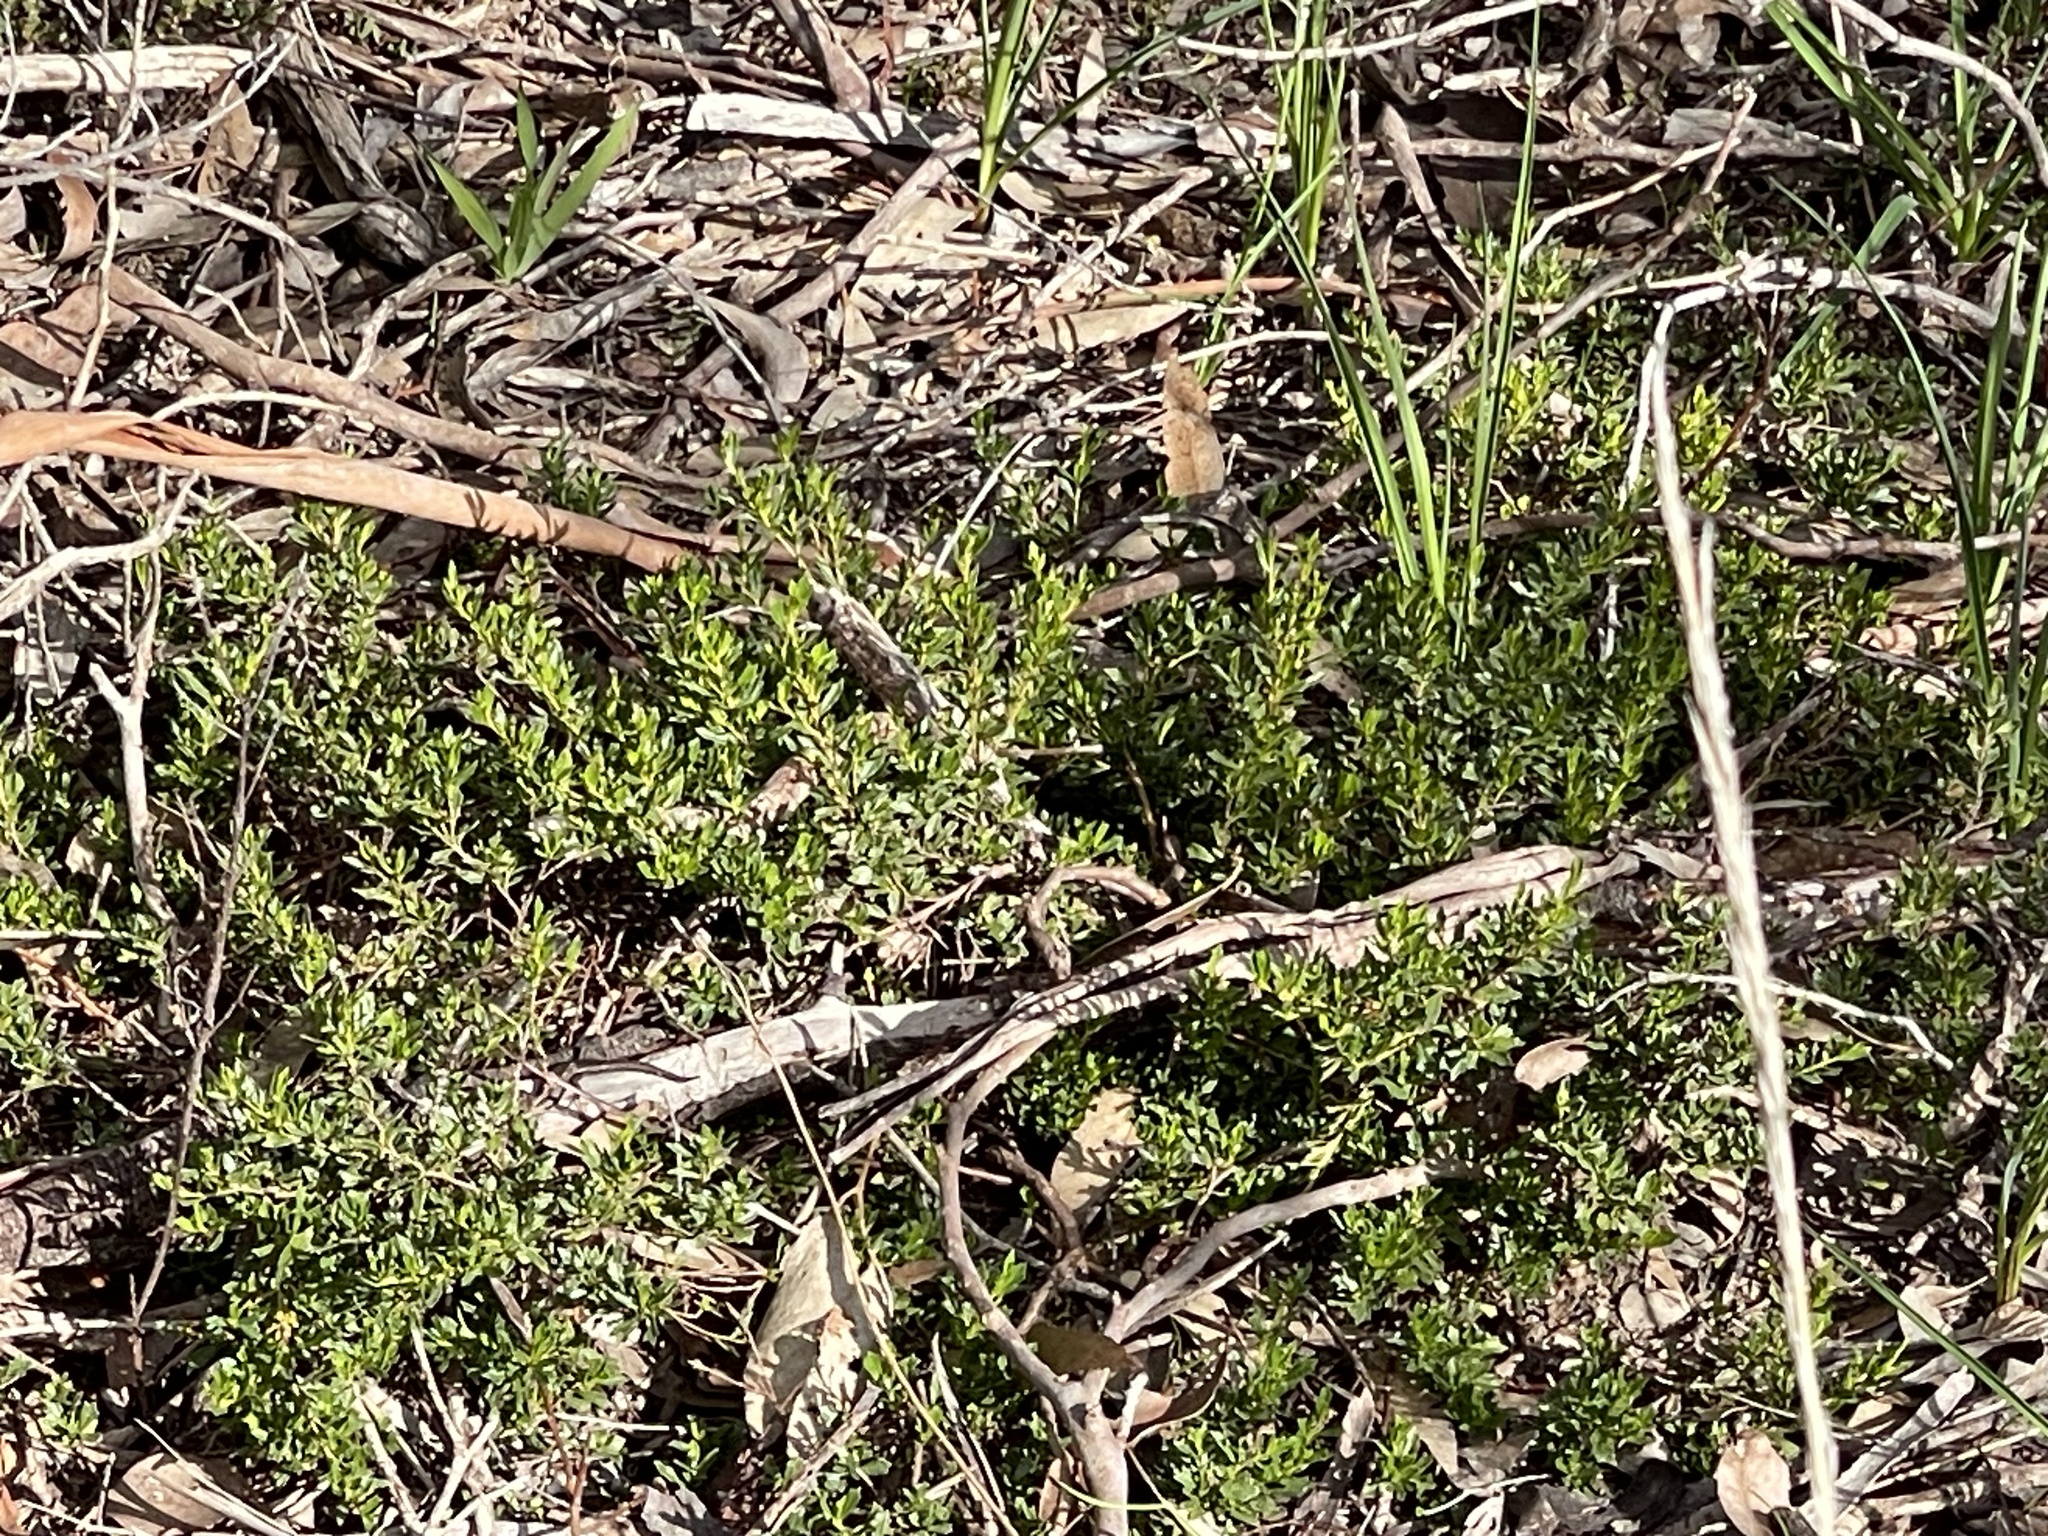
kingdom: Plantae
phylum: Tracheophyta
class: Magnoliopsida
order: Sapindales
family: Sapindaceae
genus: Dodonaea
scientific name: Dodonaea procumbens
